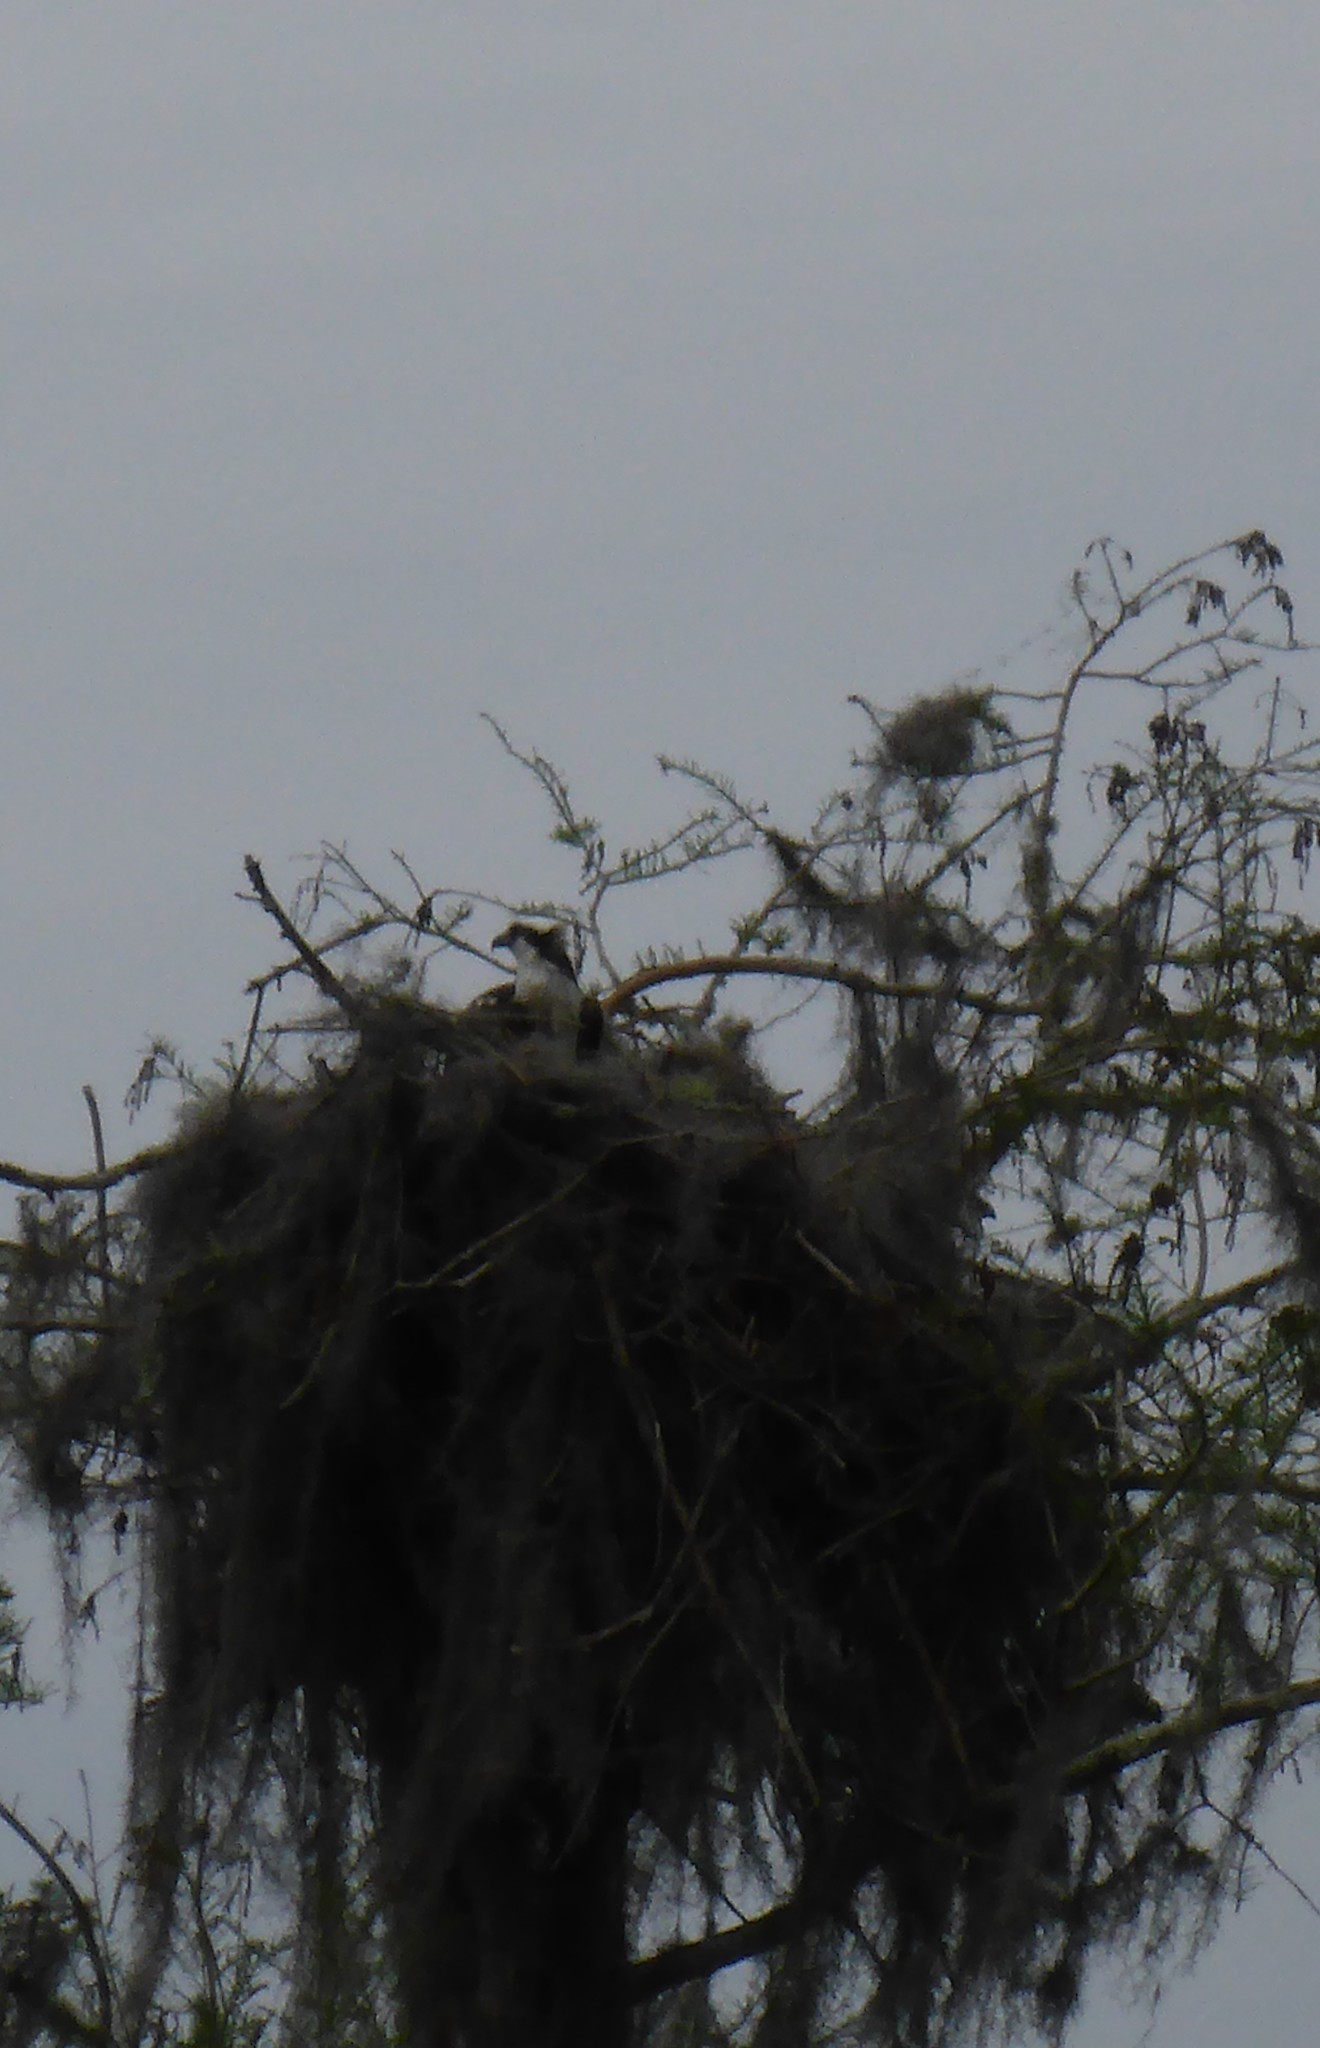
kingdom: Animalia
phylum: Chordata
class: Aves
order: Accipitriformes
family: Pandionidae
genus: Pandion
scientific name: Pandion haliaetus
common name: Osprey
